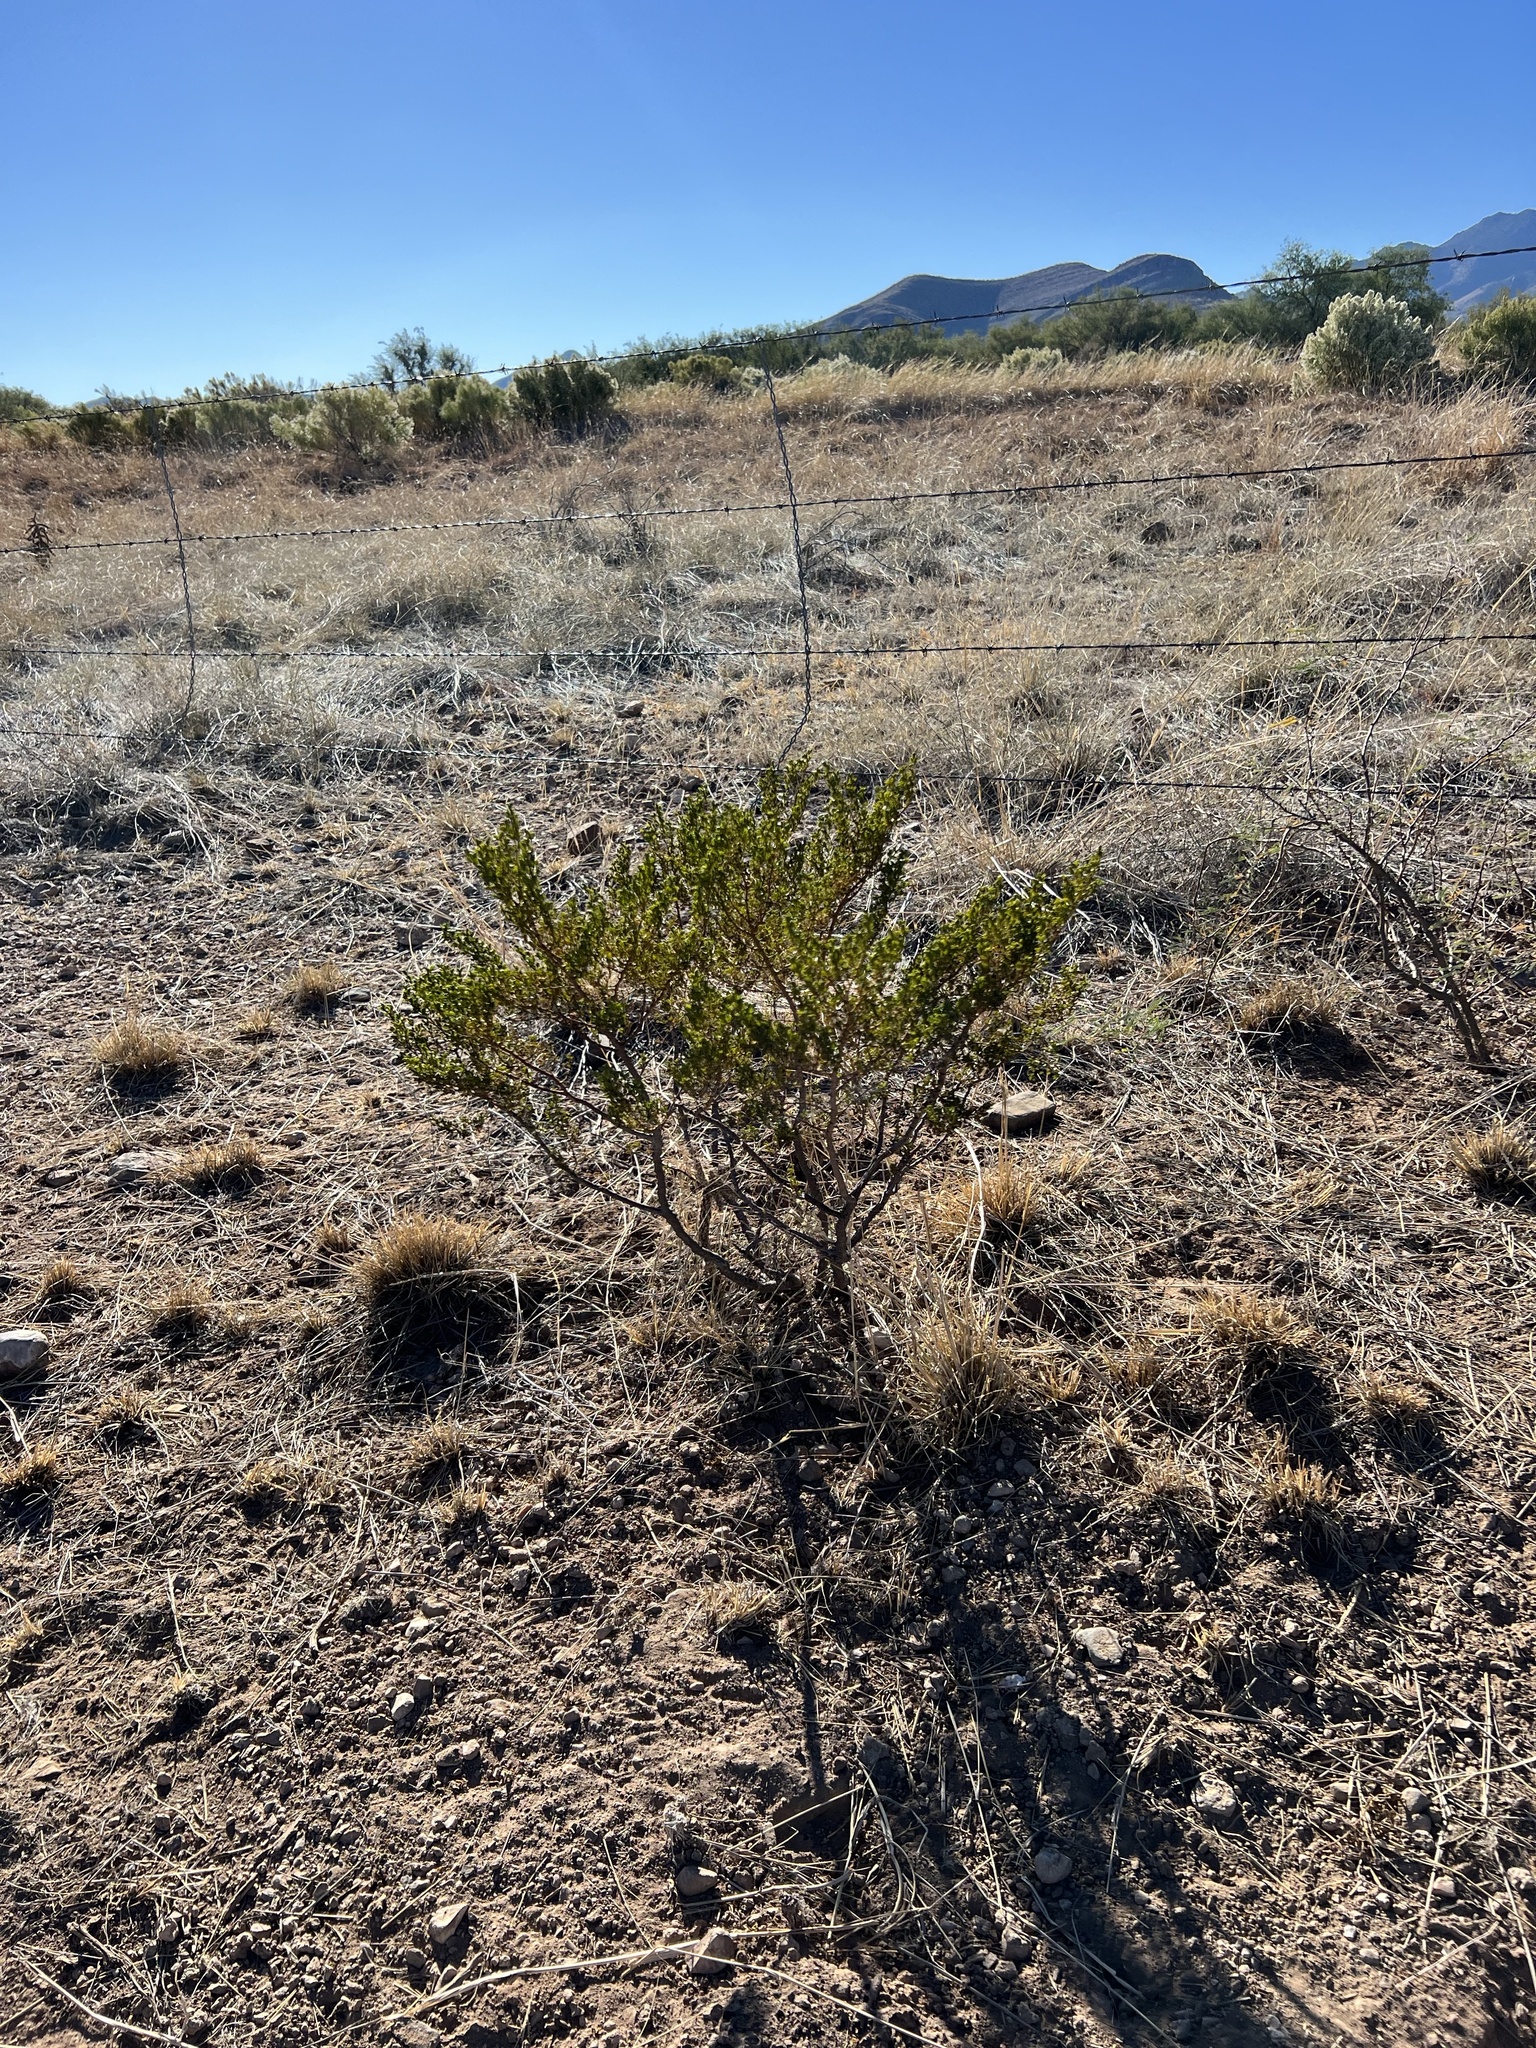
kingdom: Plantae
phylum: Tracheophyta
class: Magnoliopsida
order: Zygophyllales
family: Zygophyllaceae
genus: Larrea
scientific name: Larrea tridentata
